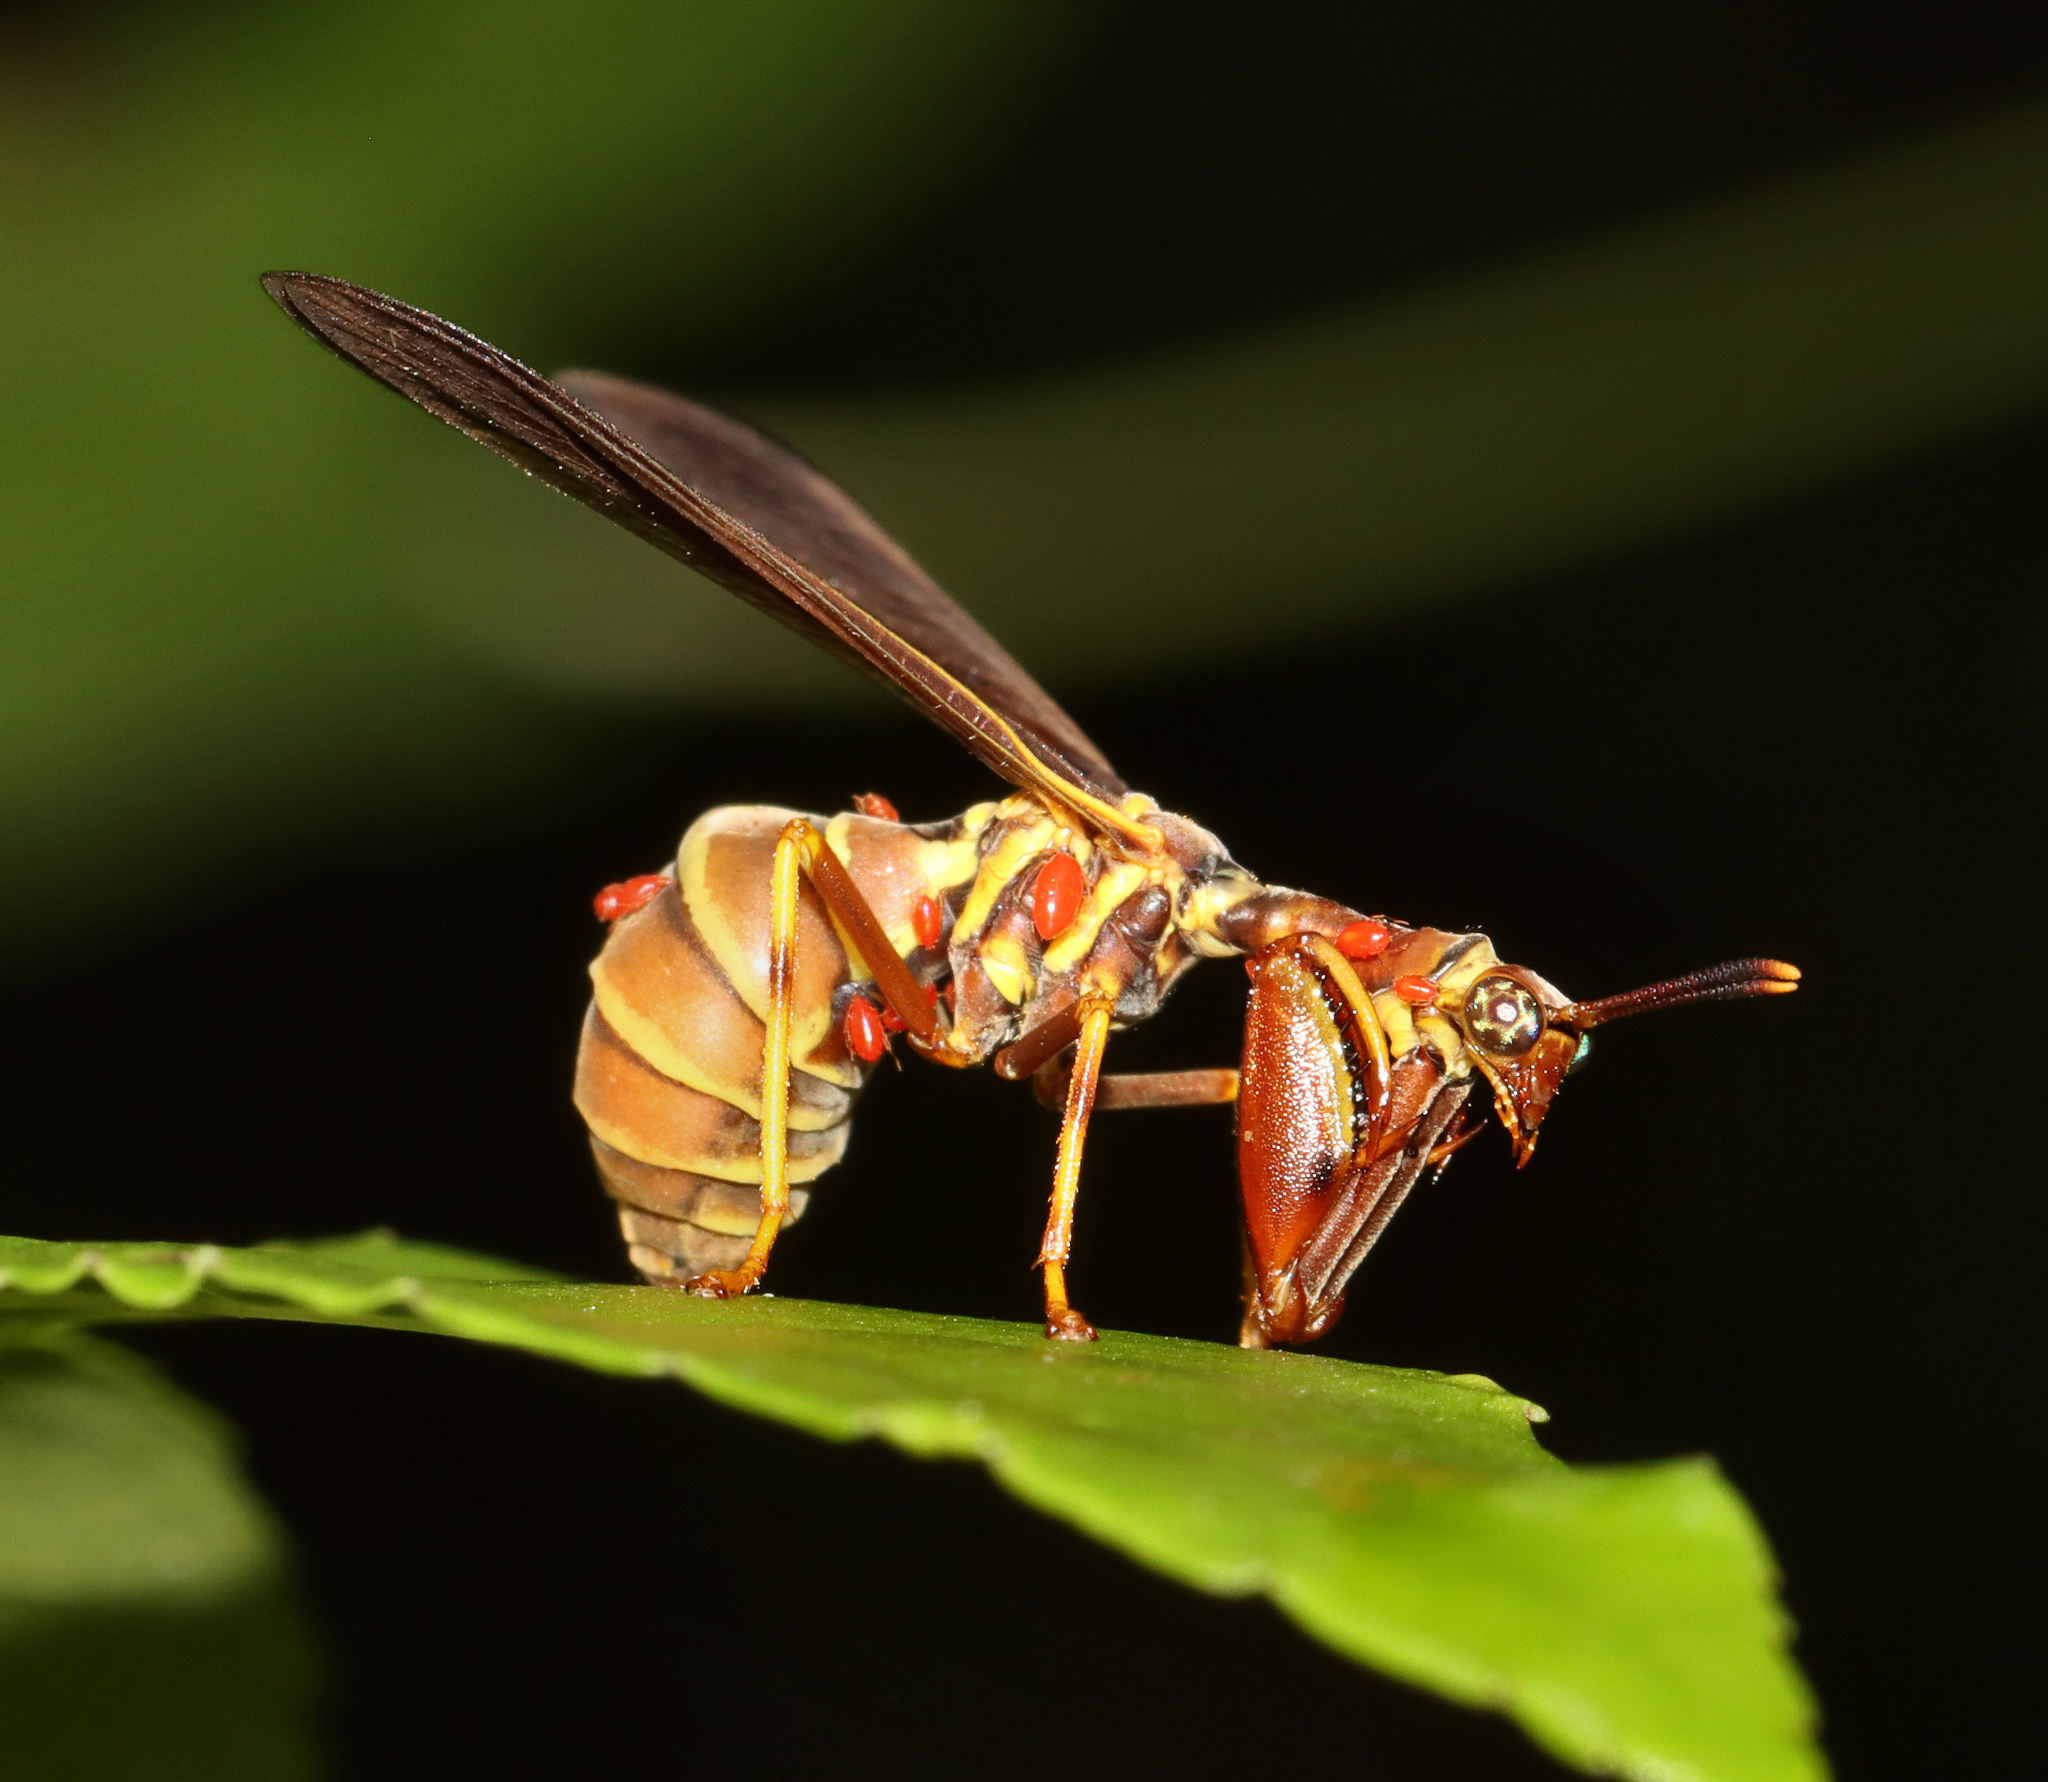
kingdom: Animalia
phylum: Arthropoda
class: Insecta
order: Neuroptera
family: Mantispidae
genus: Climaciella
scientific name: Climaciella brunnea
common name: Brown wasp mantidfly
